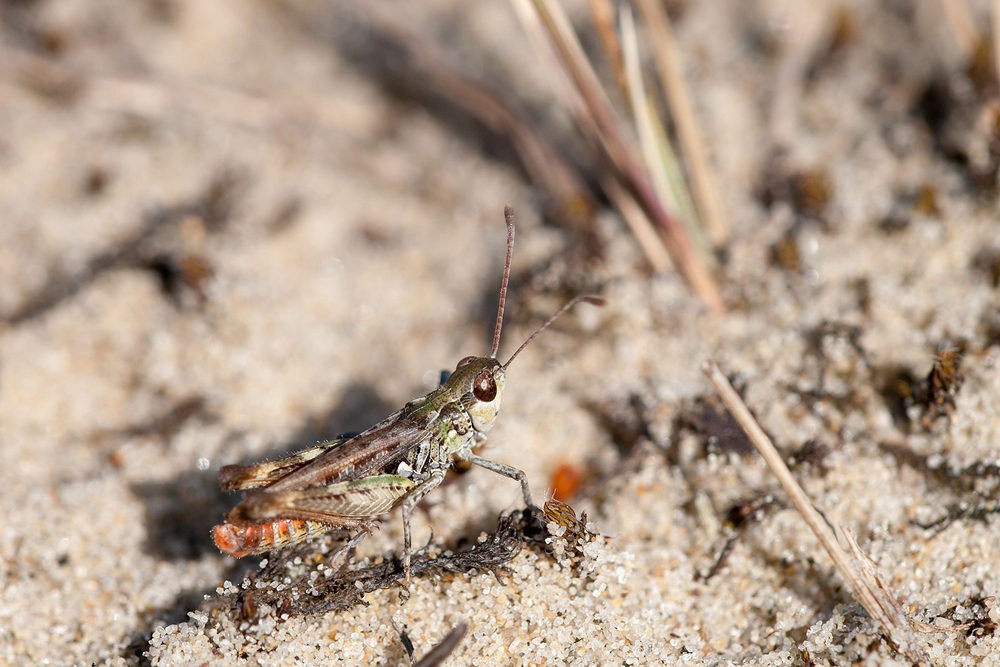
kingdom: Animalia
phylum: Arthropoda
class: Insecta
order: Orthoptera
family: Acrididae
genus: Myrmeleotettix
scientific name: Myrmeleotettix maculatus
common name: Mottled grasshopper
